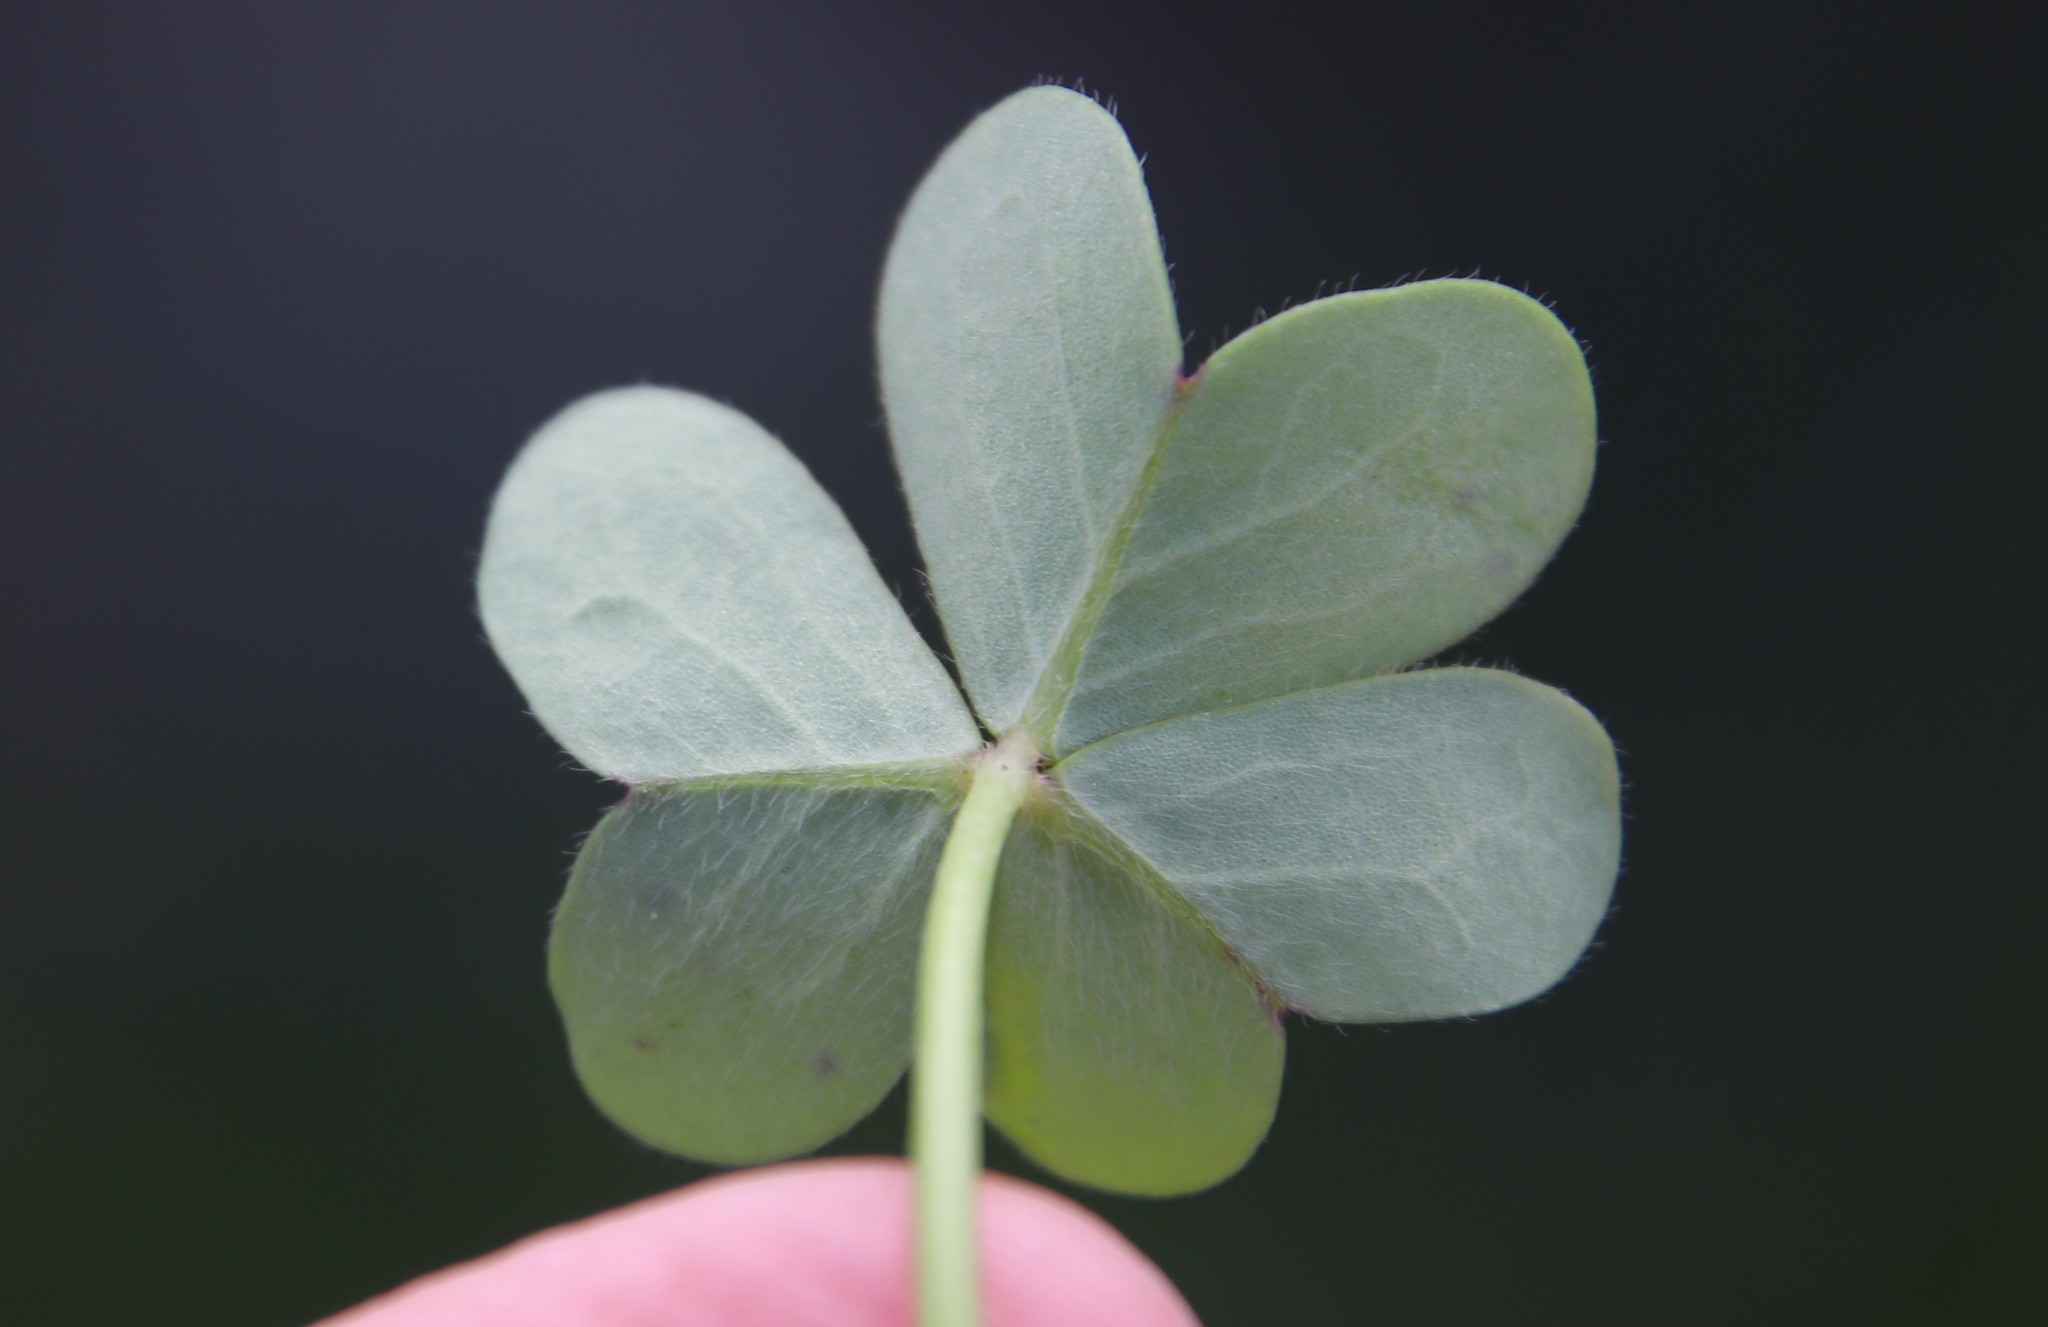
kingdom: Plantae
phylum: Tracheophyta
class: Magnoliopsida
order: Oxalidales
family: Oxalidaceae
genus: Oxalis
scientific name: Oxalis pes-caprae
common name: Bermuda-buttercup
